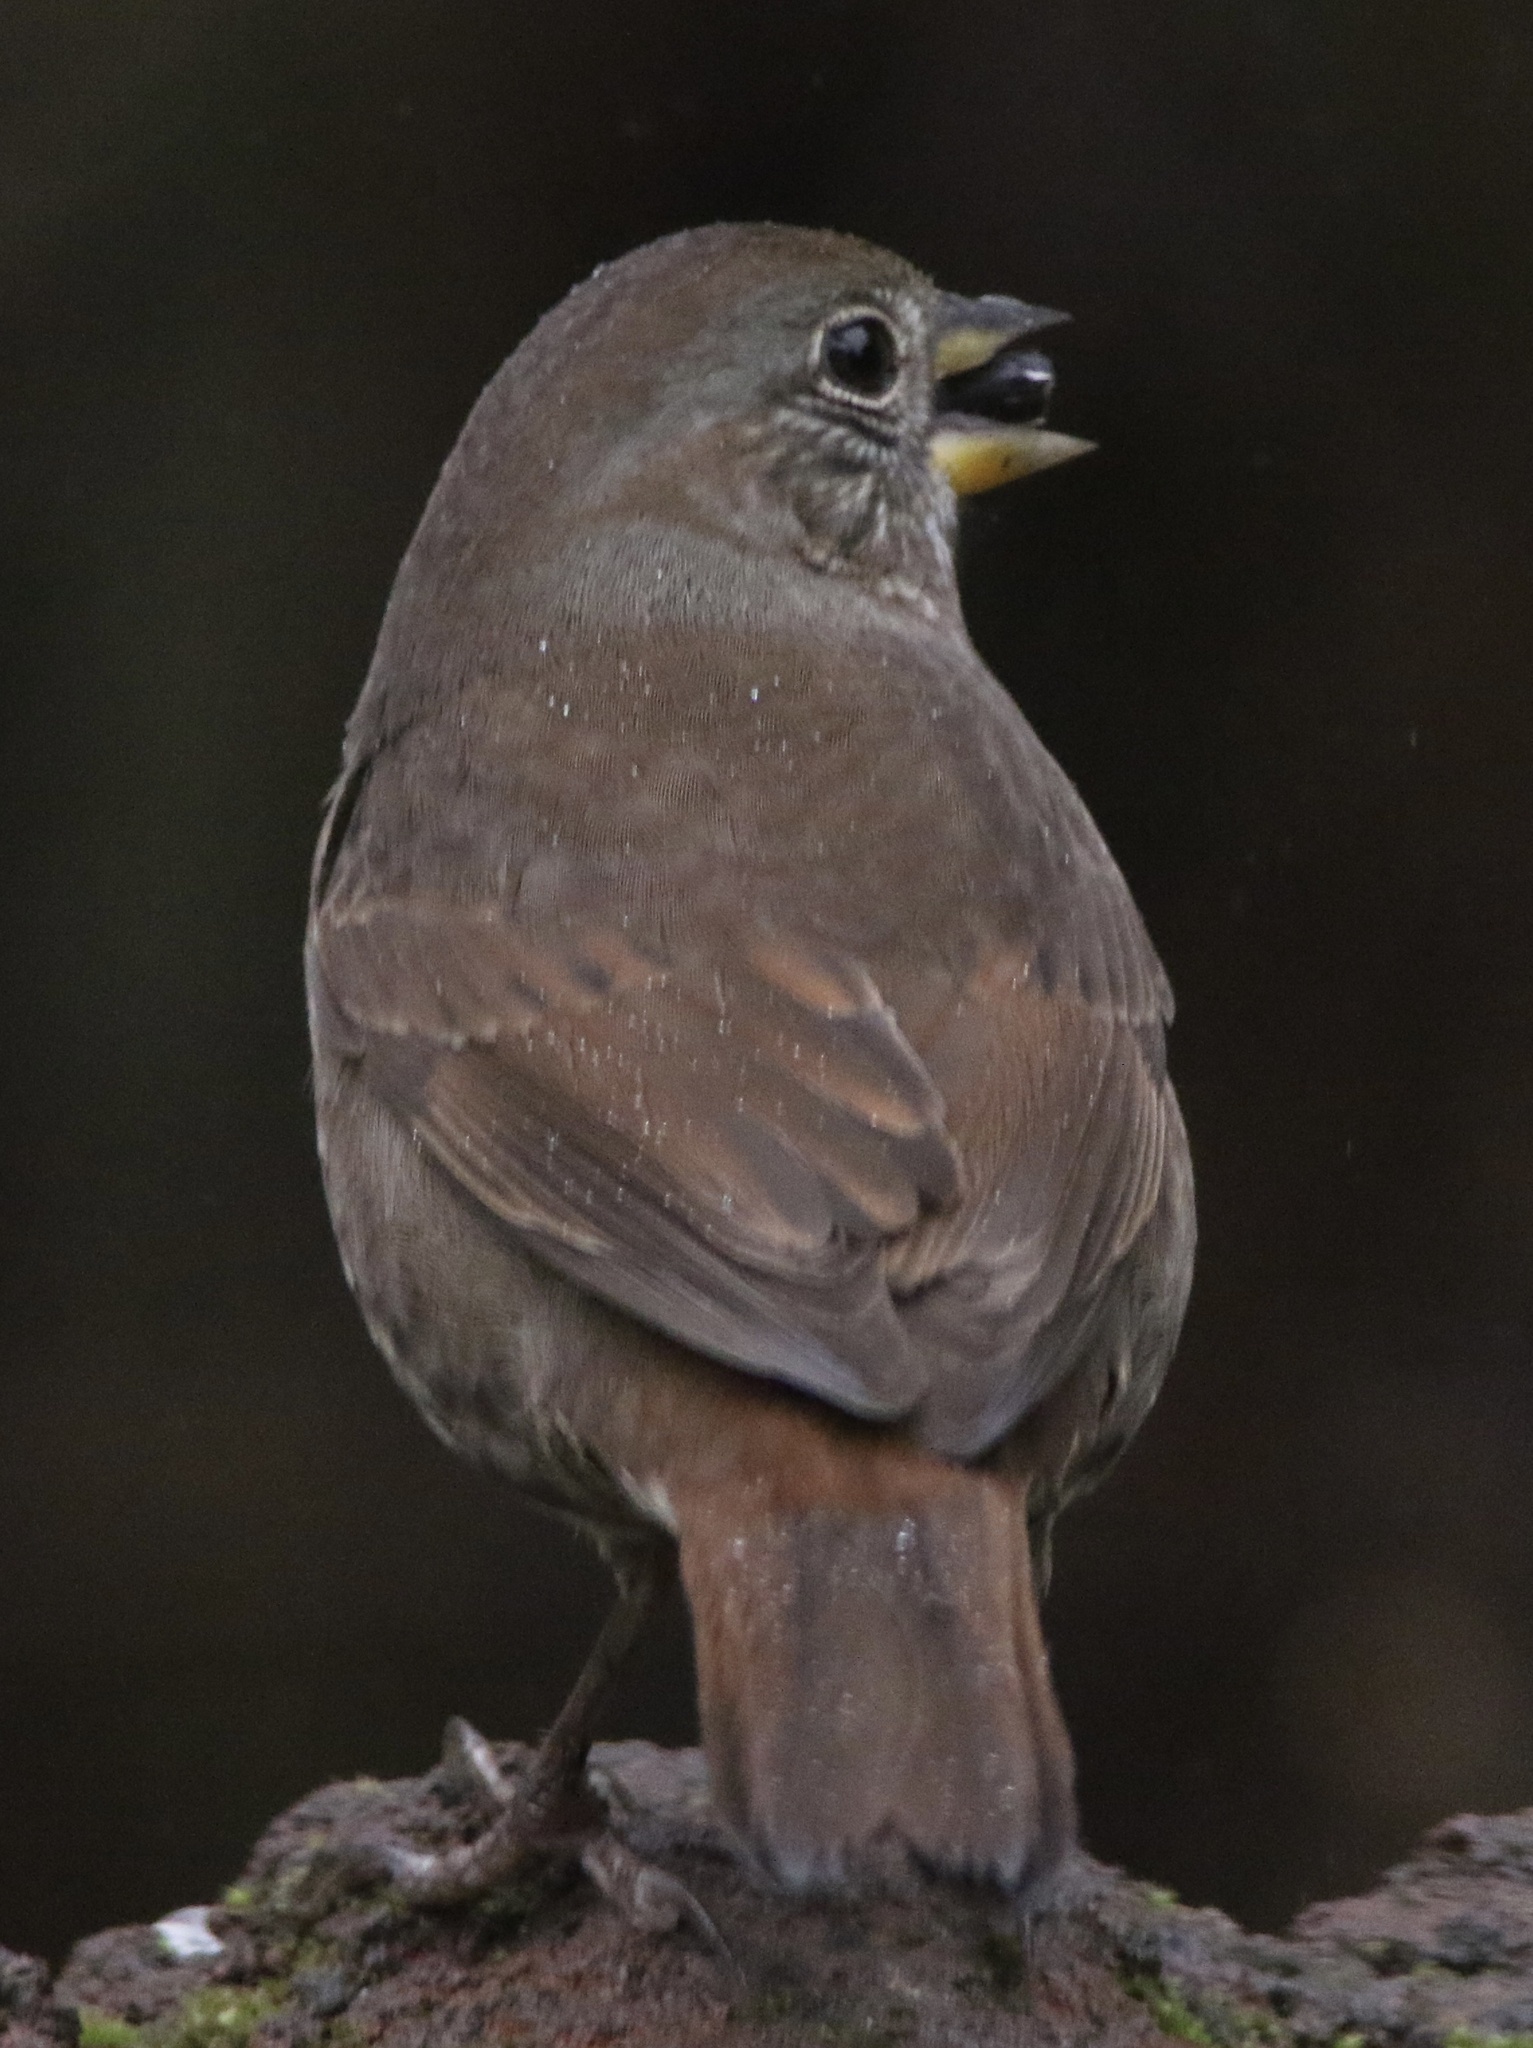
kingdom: Animalia
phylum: Chordata
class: Aves
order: Passeriformes
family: Passerellidae
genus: Passerella
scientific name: Passerella iliaca
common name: Fox sparrow
